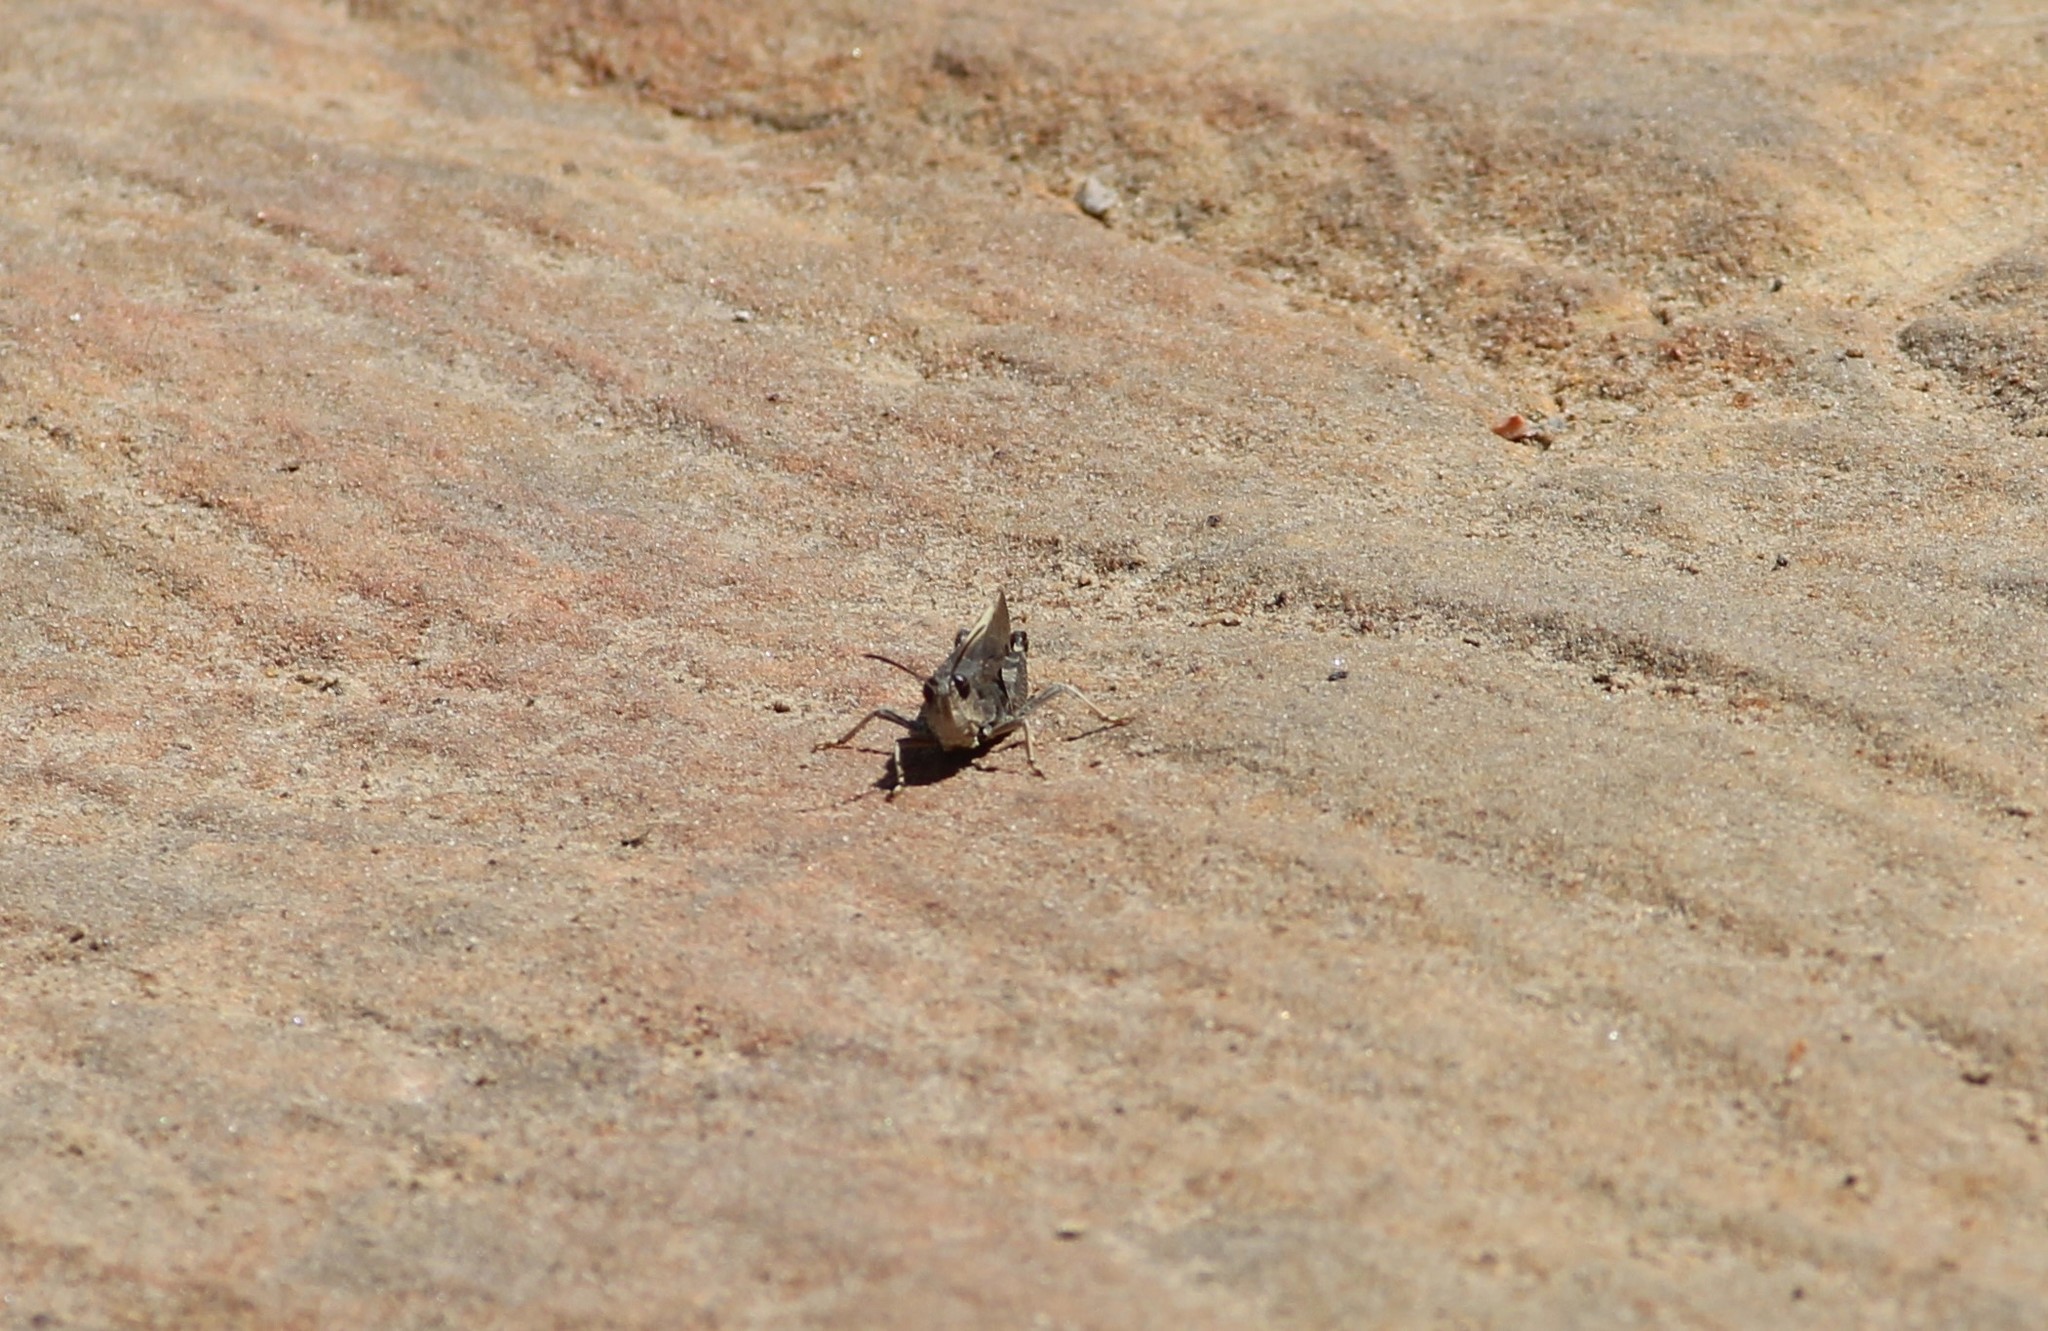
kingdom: Animalia
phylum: Arthropoda
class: Insecta
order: Orthoptera
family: Acrididae
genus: Arphia
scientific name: Arphia conspersa
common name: Speckle-winged rangeland grasshopper
